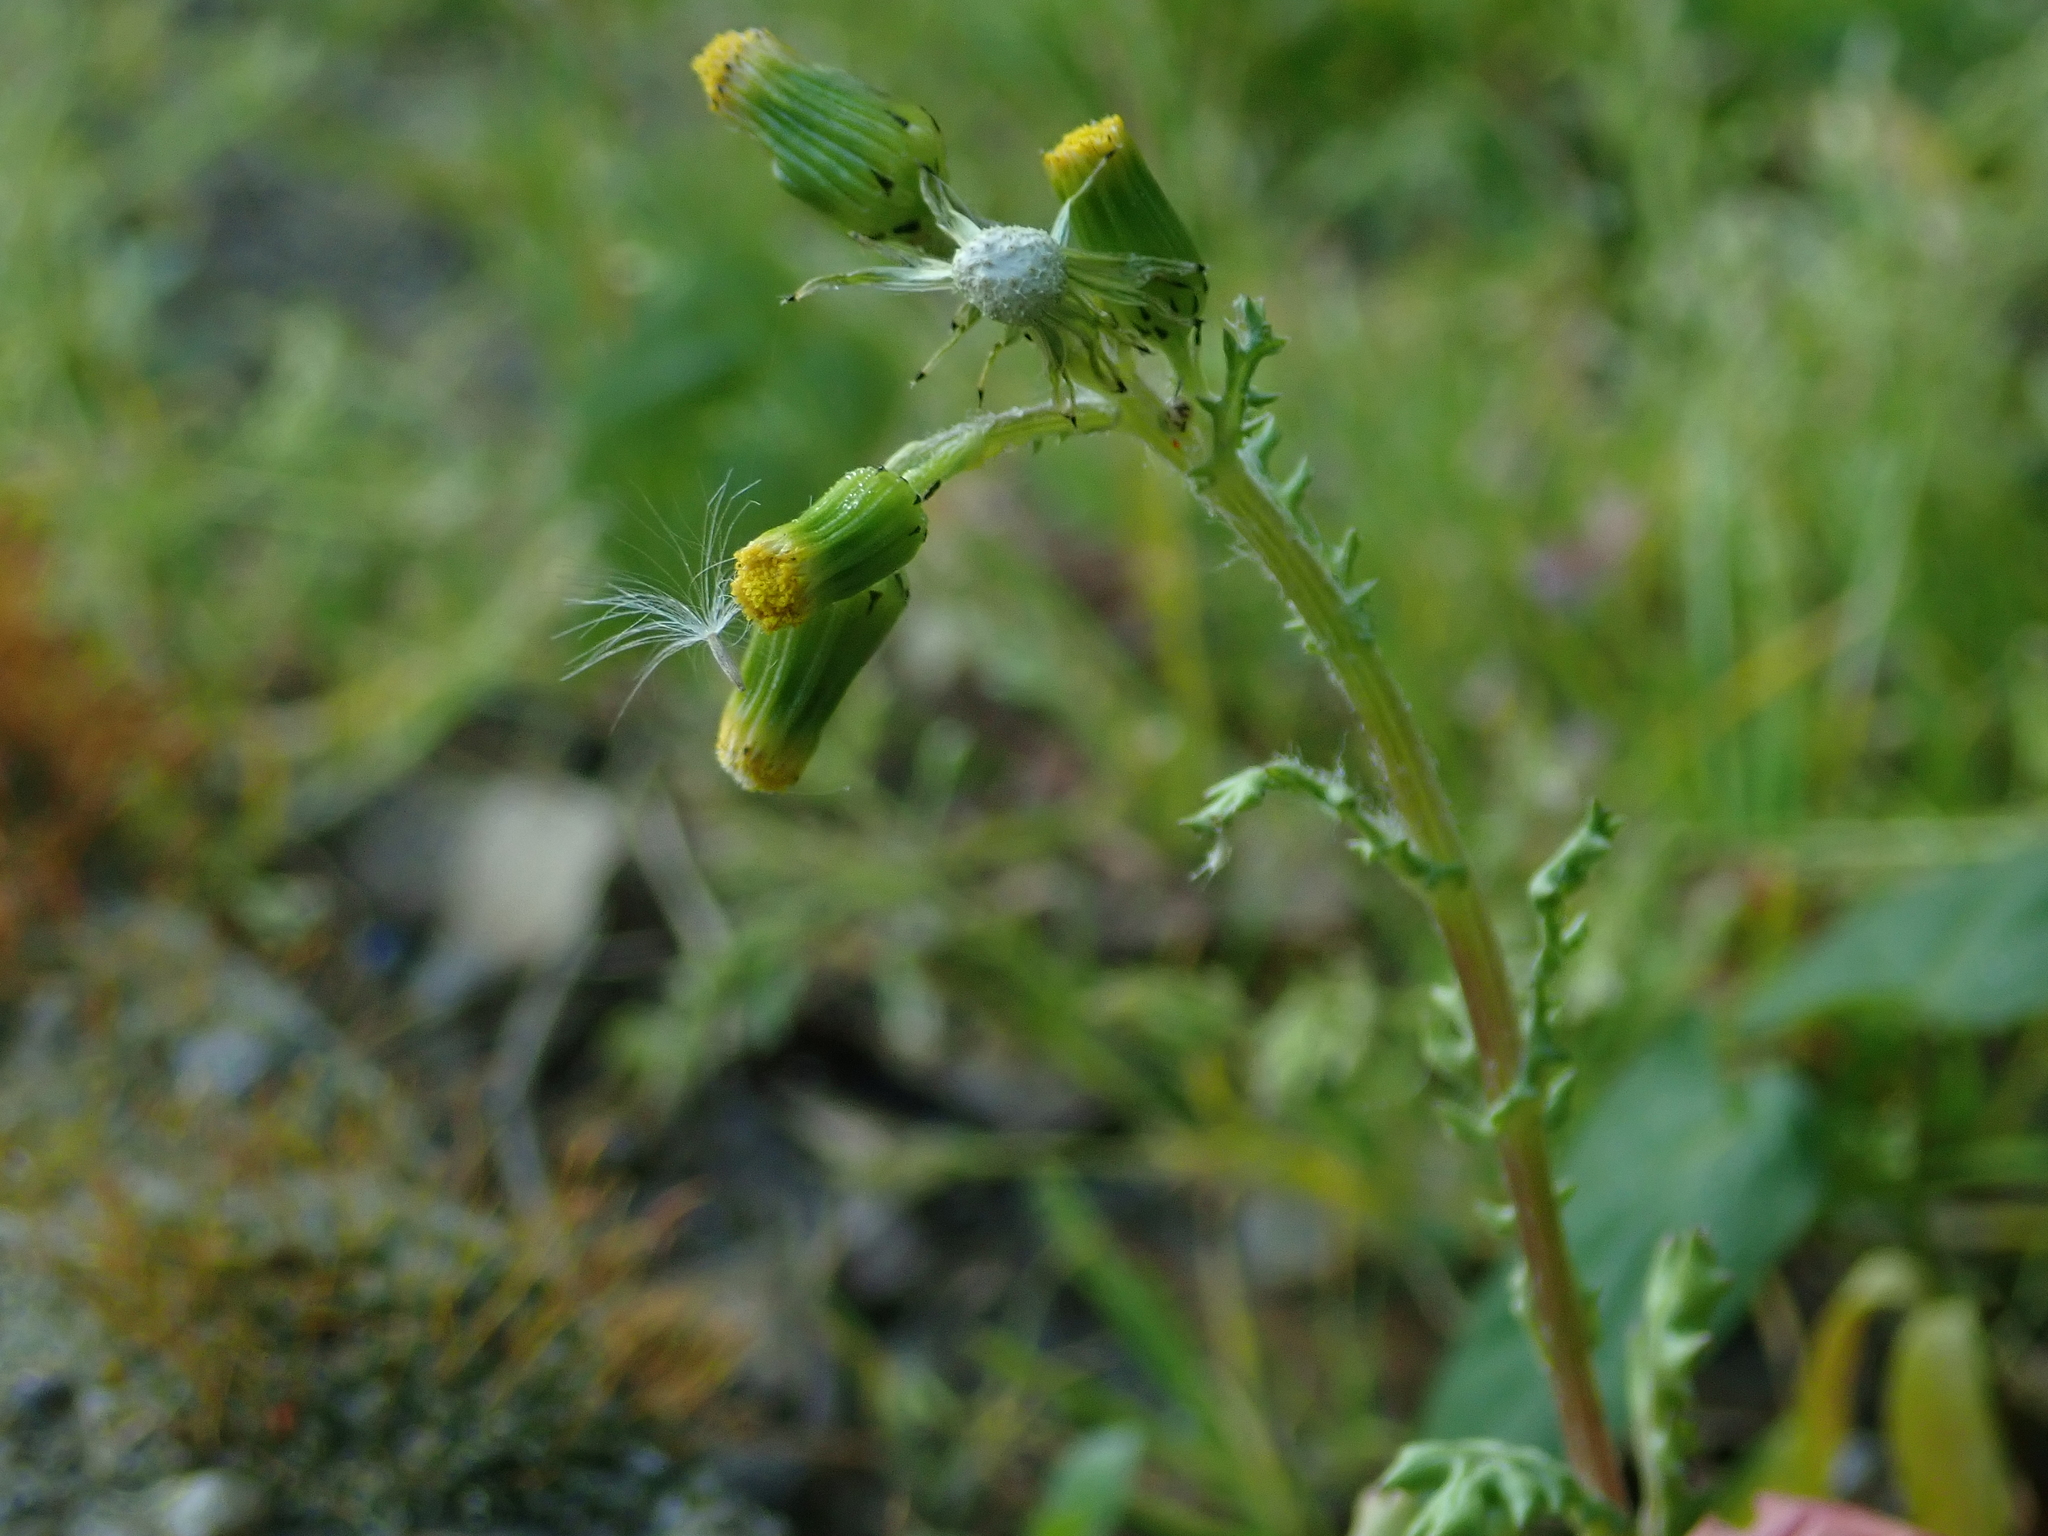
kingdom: Plantae
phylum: Tracheophyta
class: Magnoliopsida
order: Asterales
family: Asteraceae
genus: Senecio
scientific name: Senecio vulgaris
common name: Old-man-in-the-spring
